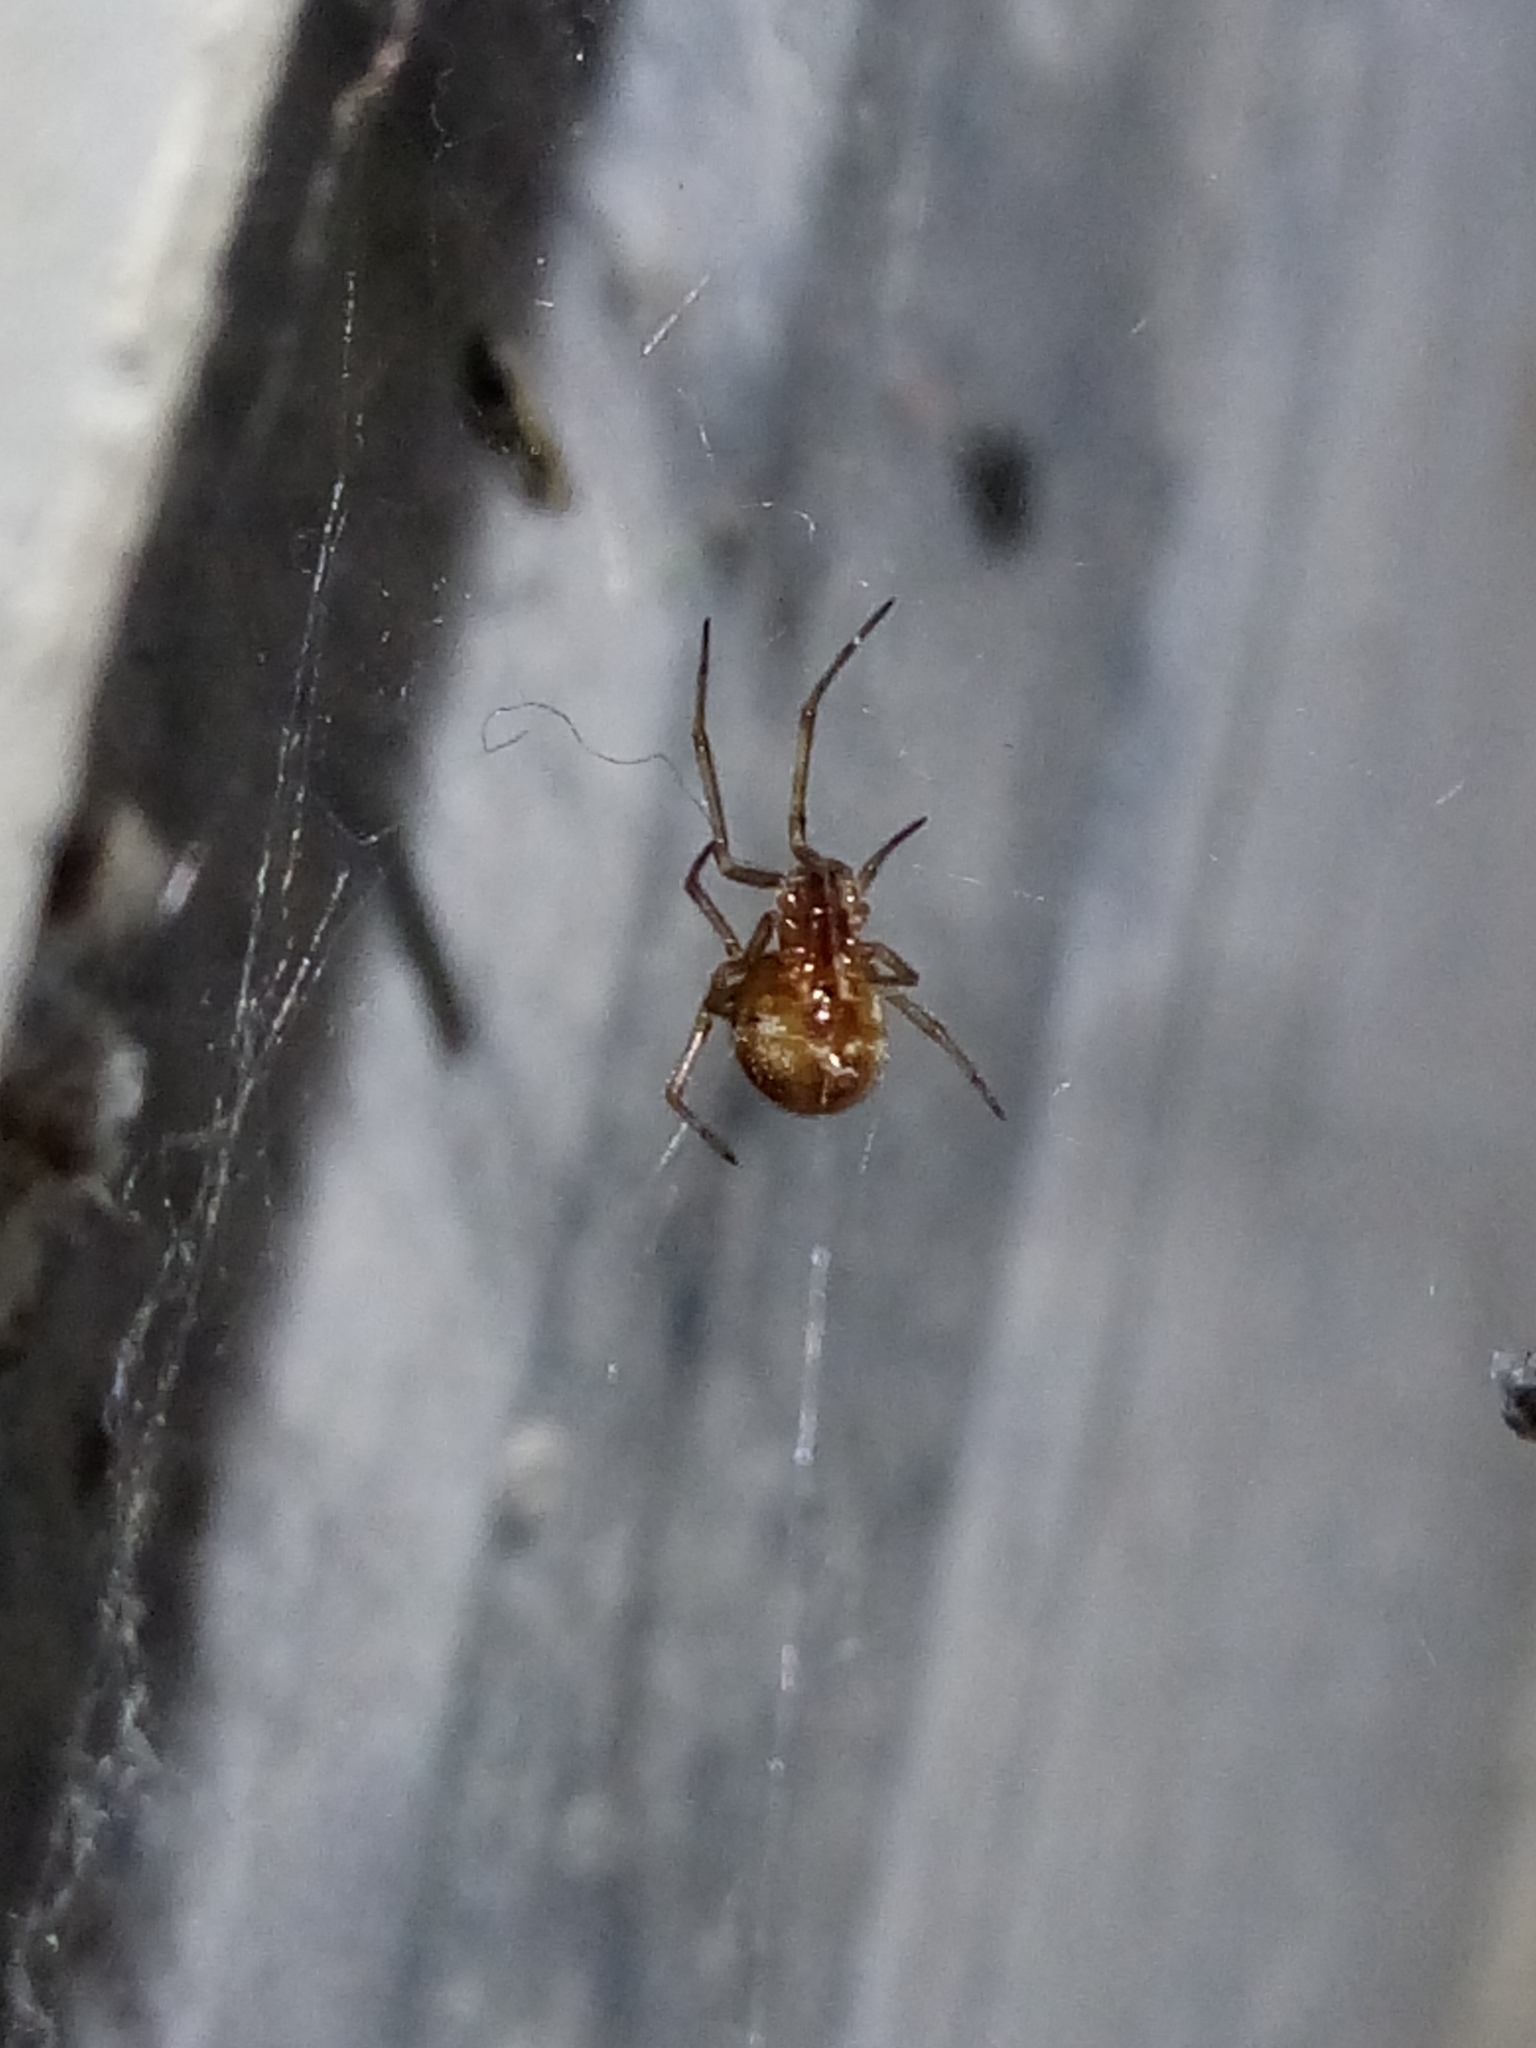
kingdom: Animalia
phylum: Arthropoda
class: Arachnida
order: Araneae
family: Theridiidae
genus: Steatoda
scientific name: Steatoda triangulosa
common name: Triangulate bud spider
